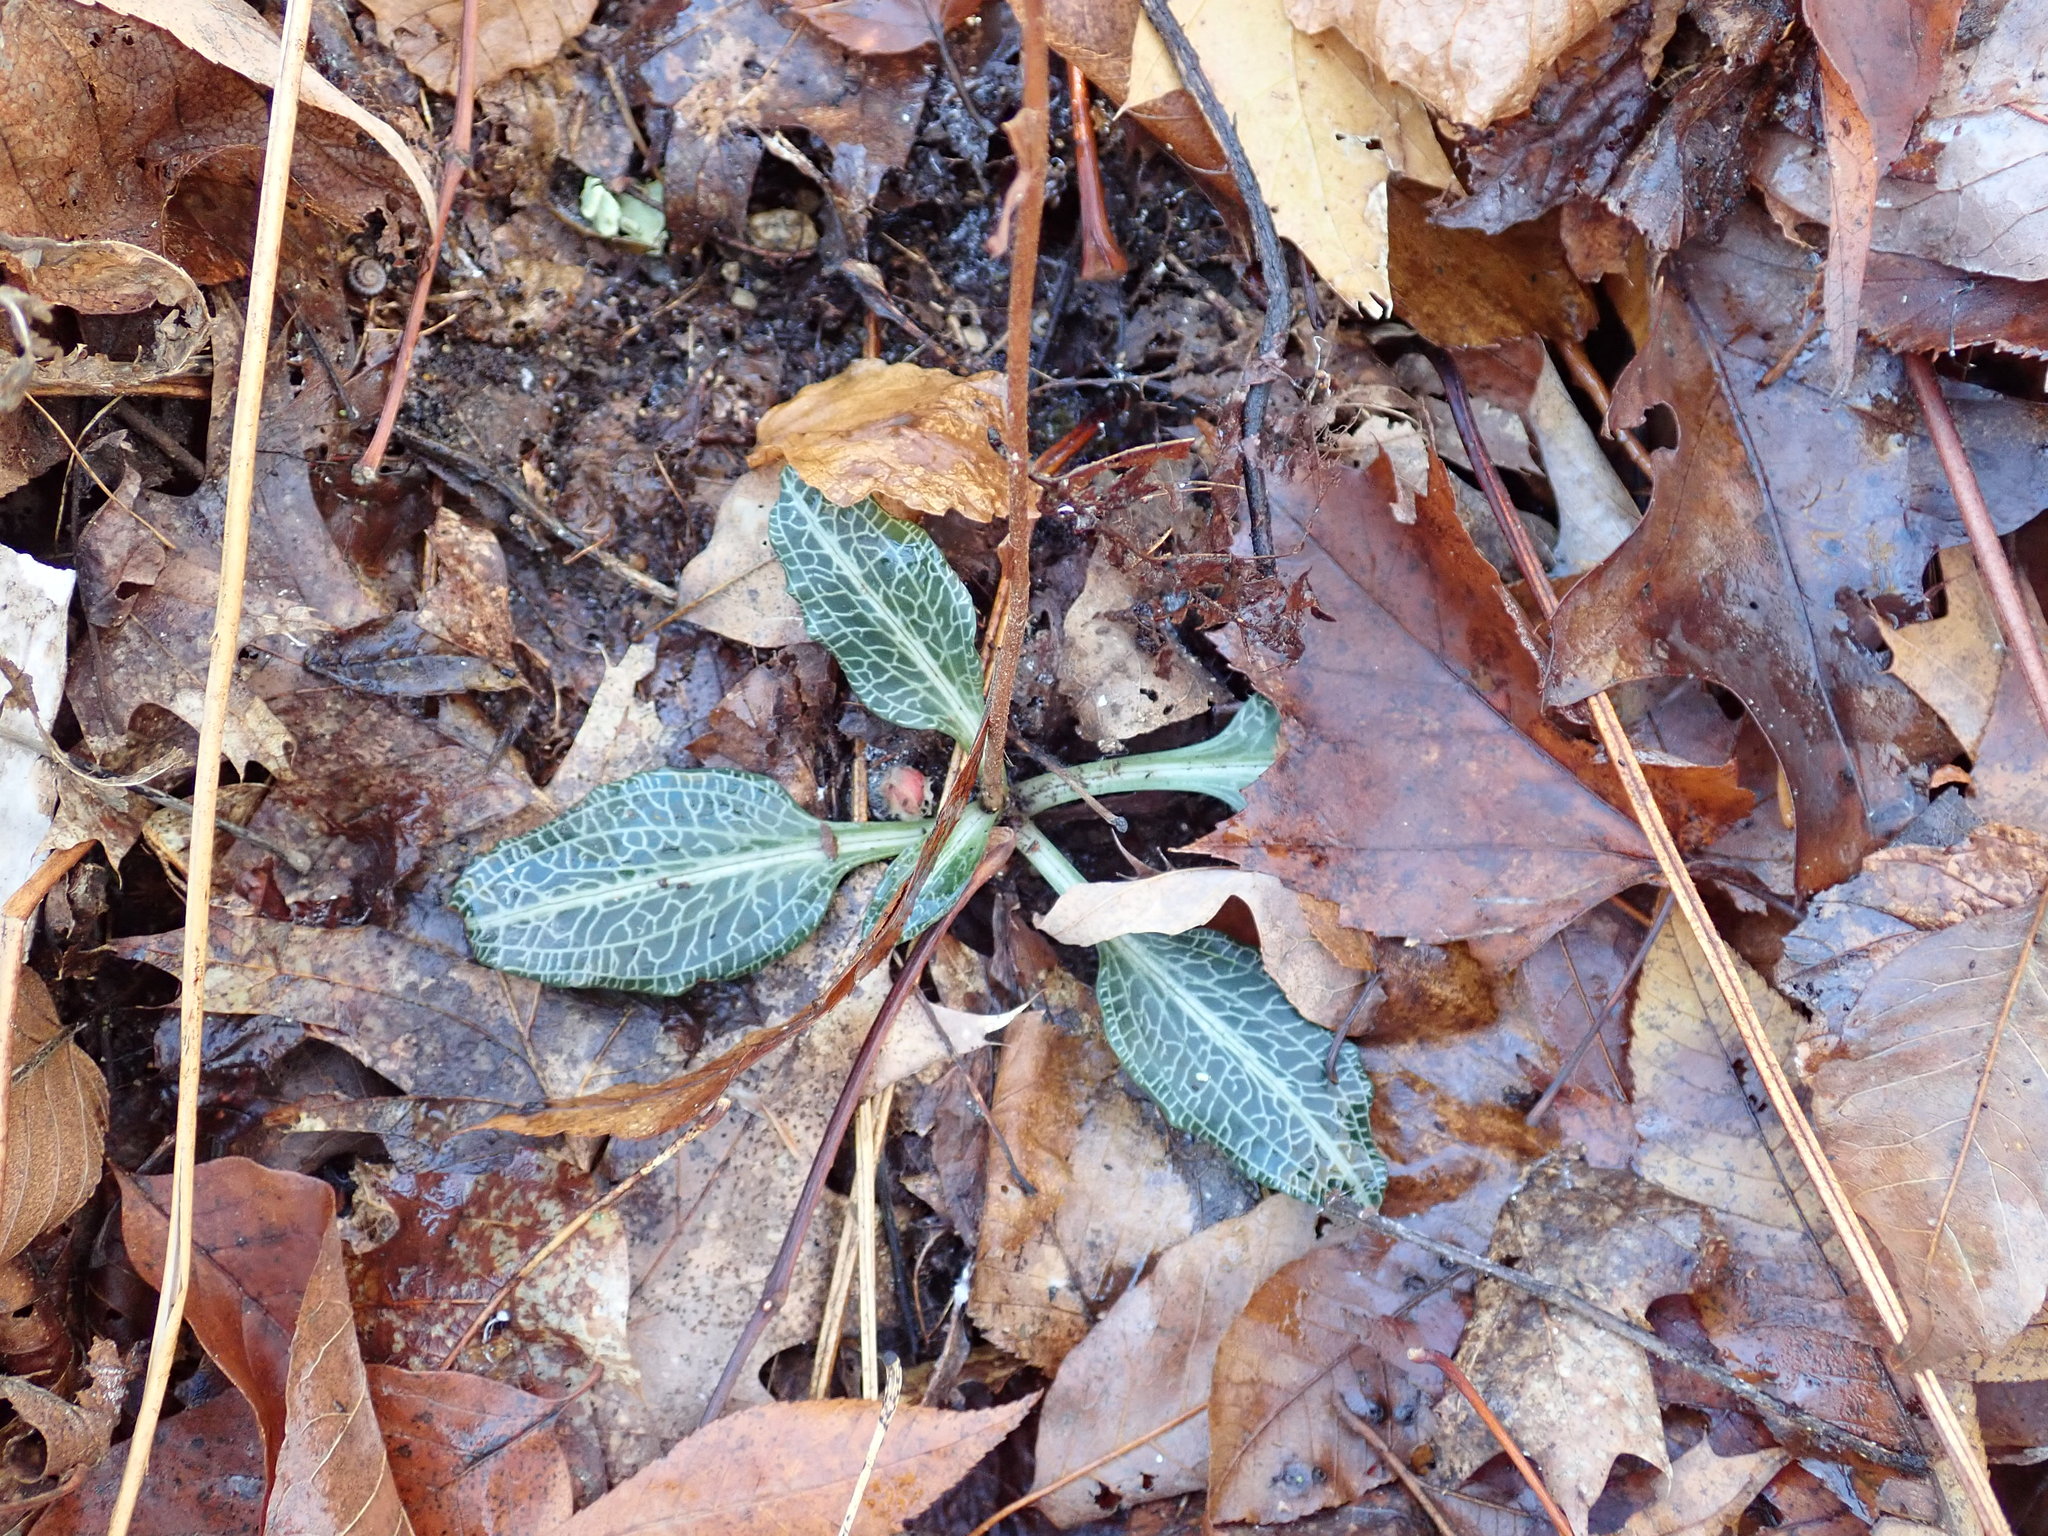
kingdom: Plantae
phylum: Tracheophyta
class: Liliopsida
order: Asparagales
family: Orchidaceae
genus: Goodyera
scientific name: Goodyera pubescens
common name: Downy rattlesnake-plantain
